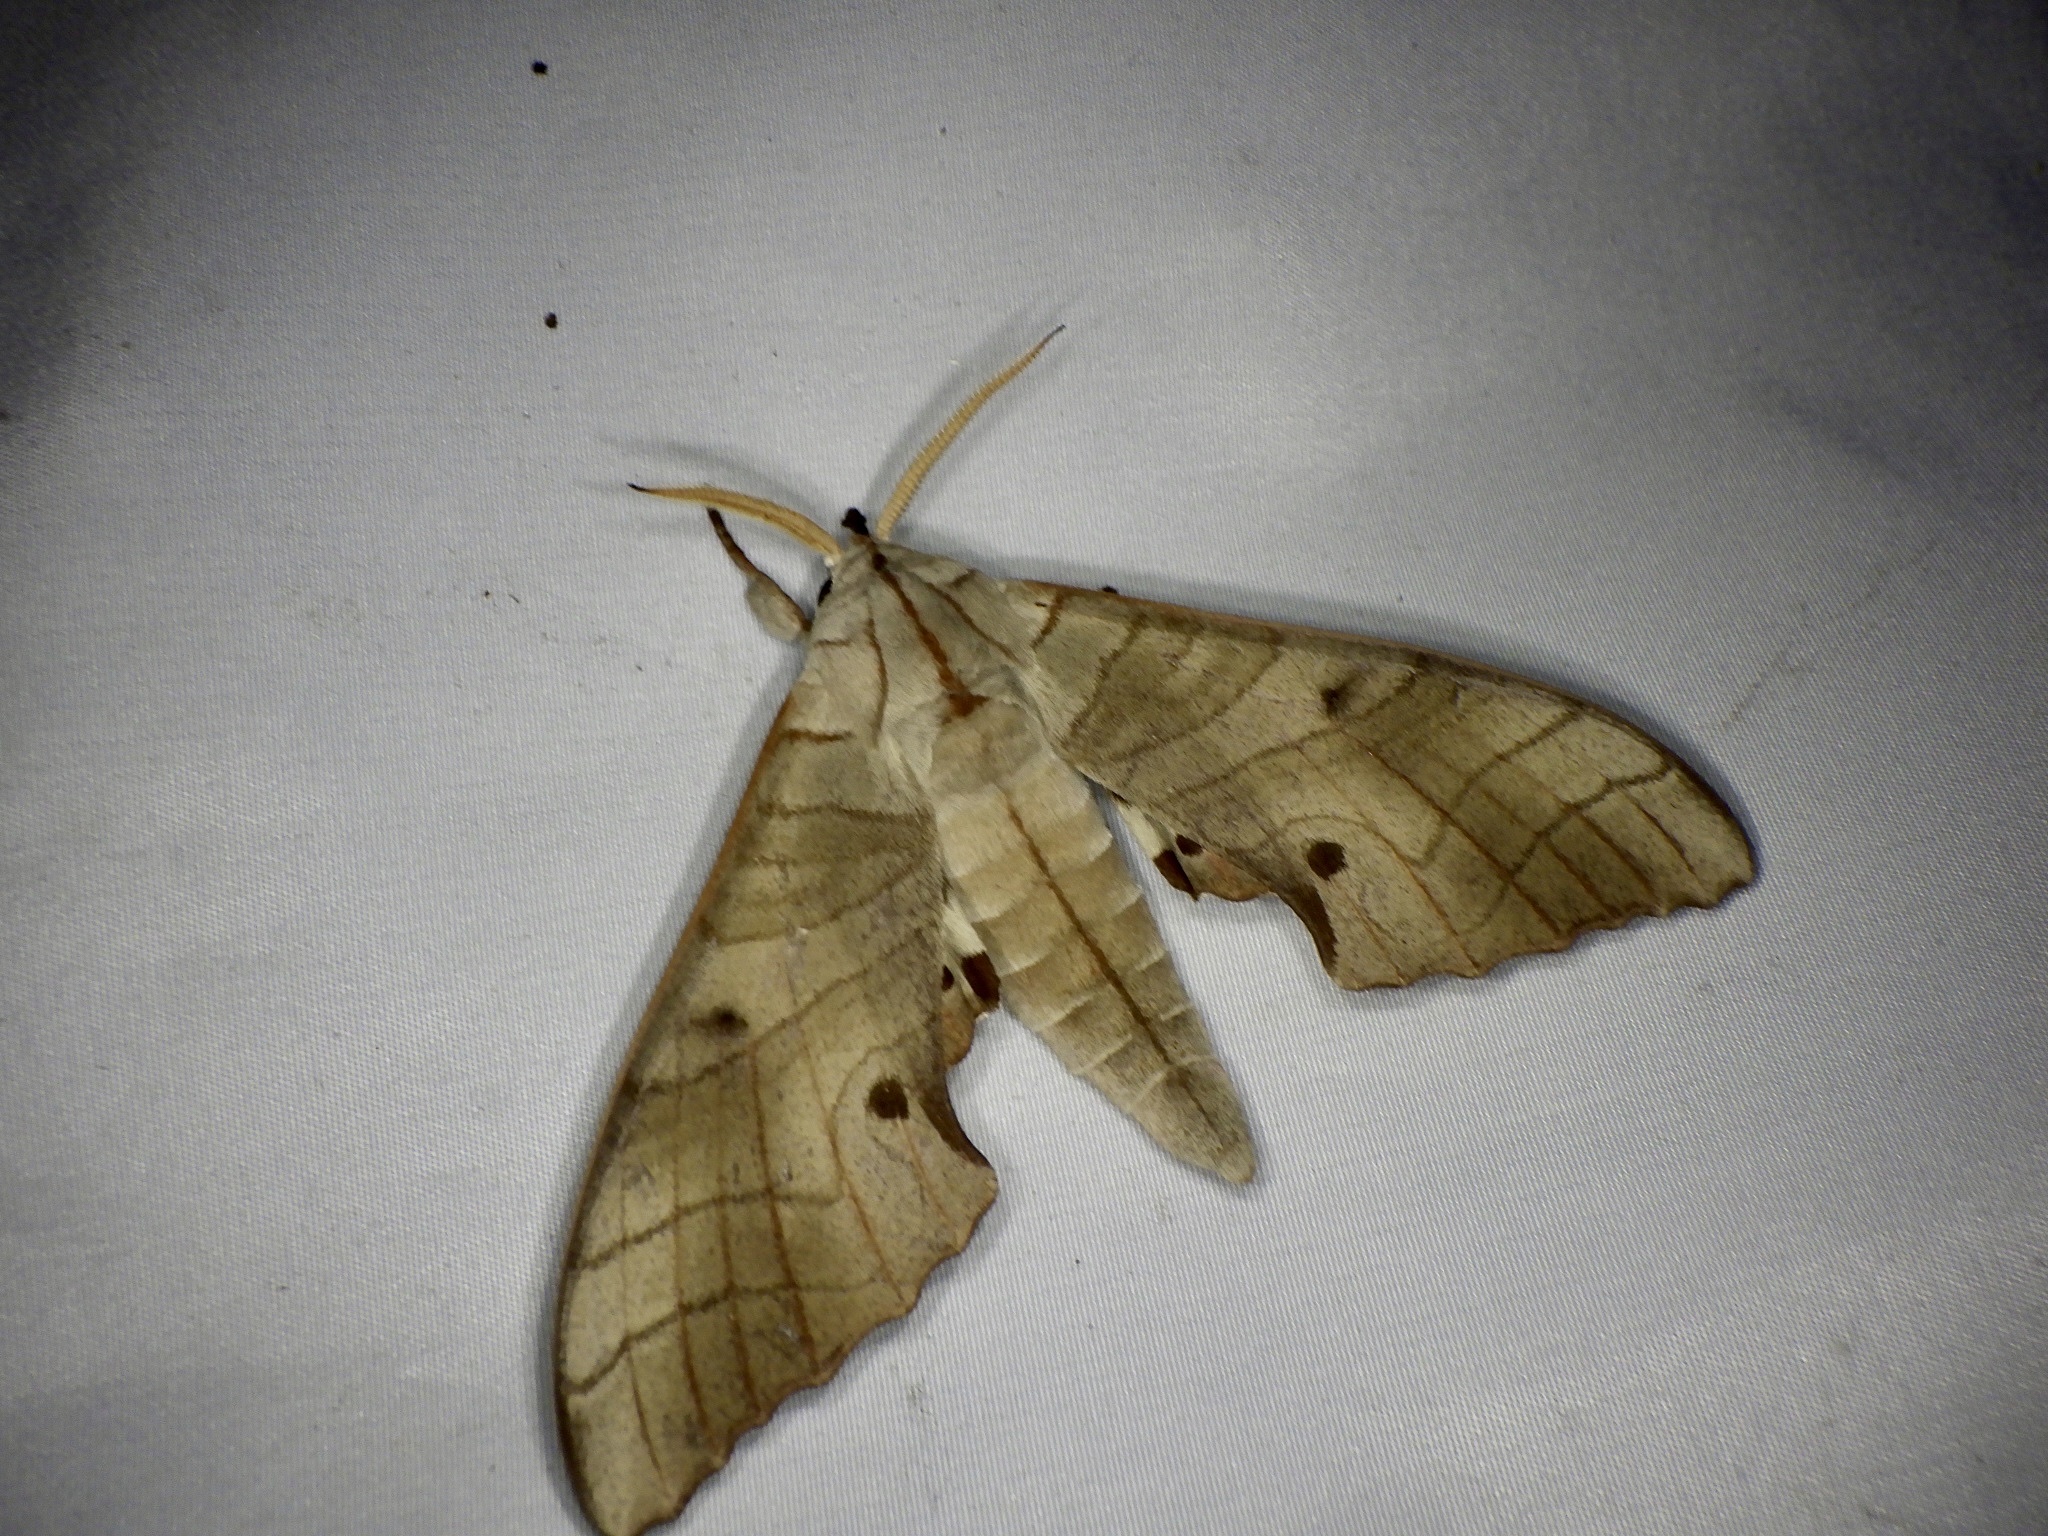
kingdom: Animalia
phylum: Arthropoda
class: Insecta
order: Lepidoptera
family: Sphingidae
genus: Marumba
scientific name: Marumba sperchius
